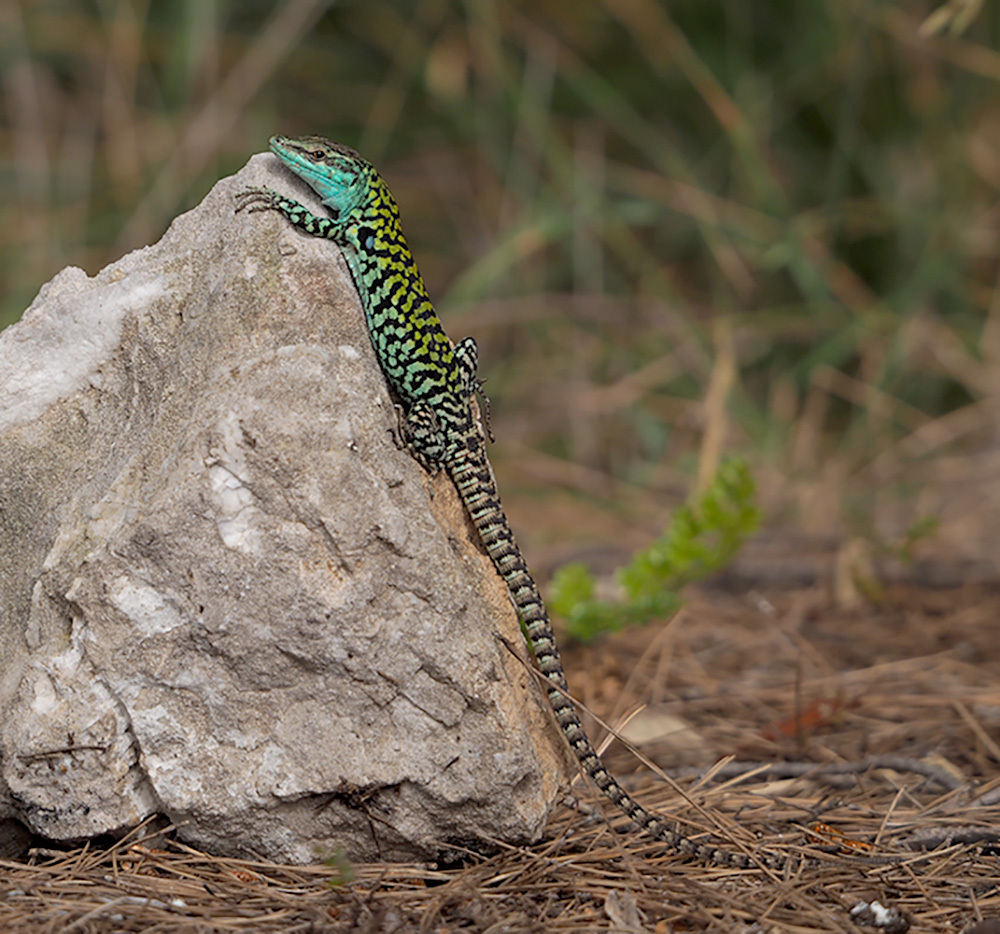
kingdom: Animalia
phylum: Chordata
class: Squamata
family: Lacertidae
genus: Podarcis
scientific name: Podarcis siculus
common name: Italian wall lizard
